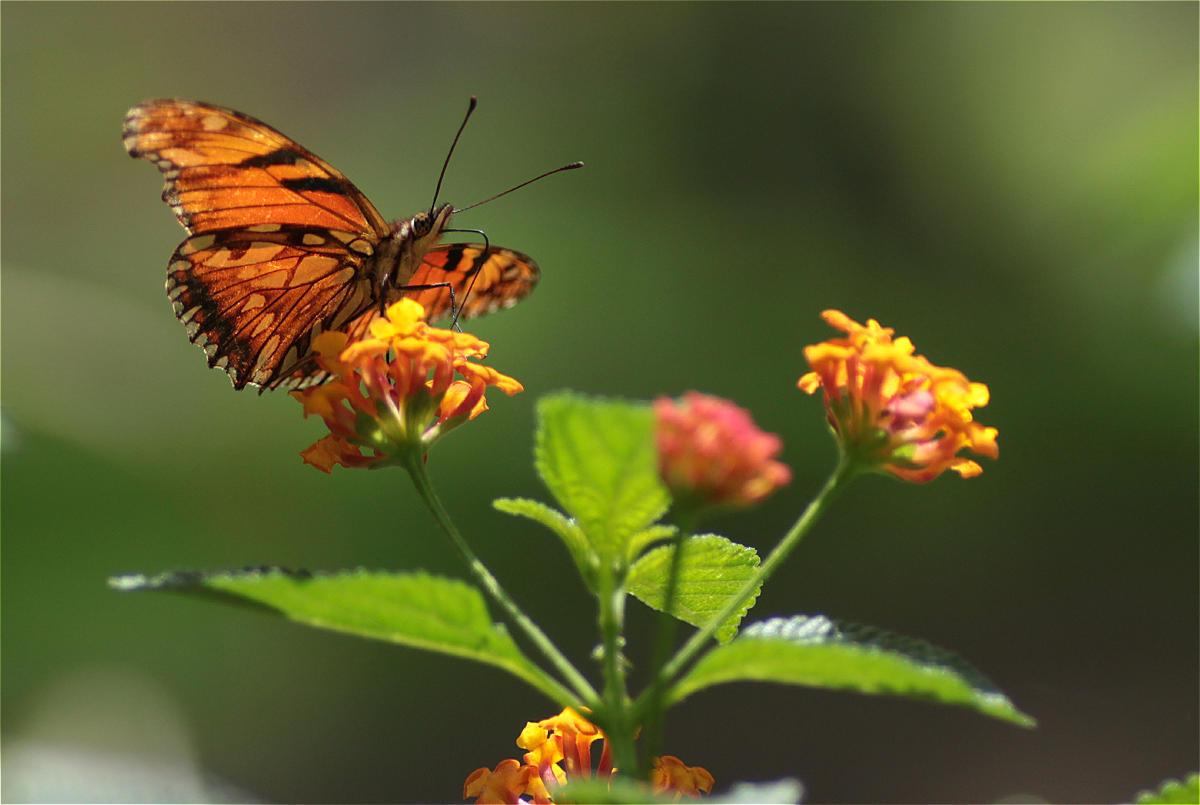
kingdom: Animalia
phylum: Arthropoda
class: Insecta
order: Lepidoptera
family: Nymphalidae
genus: Dione
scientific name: Dione juno
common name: Juno silverspot
